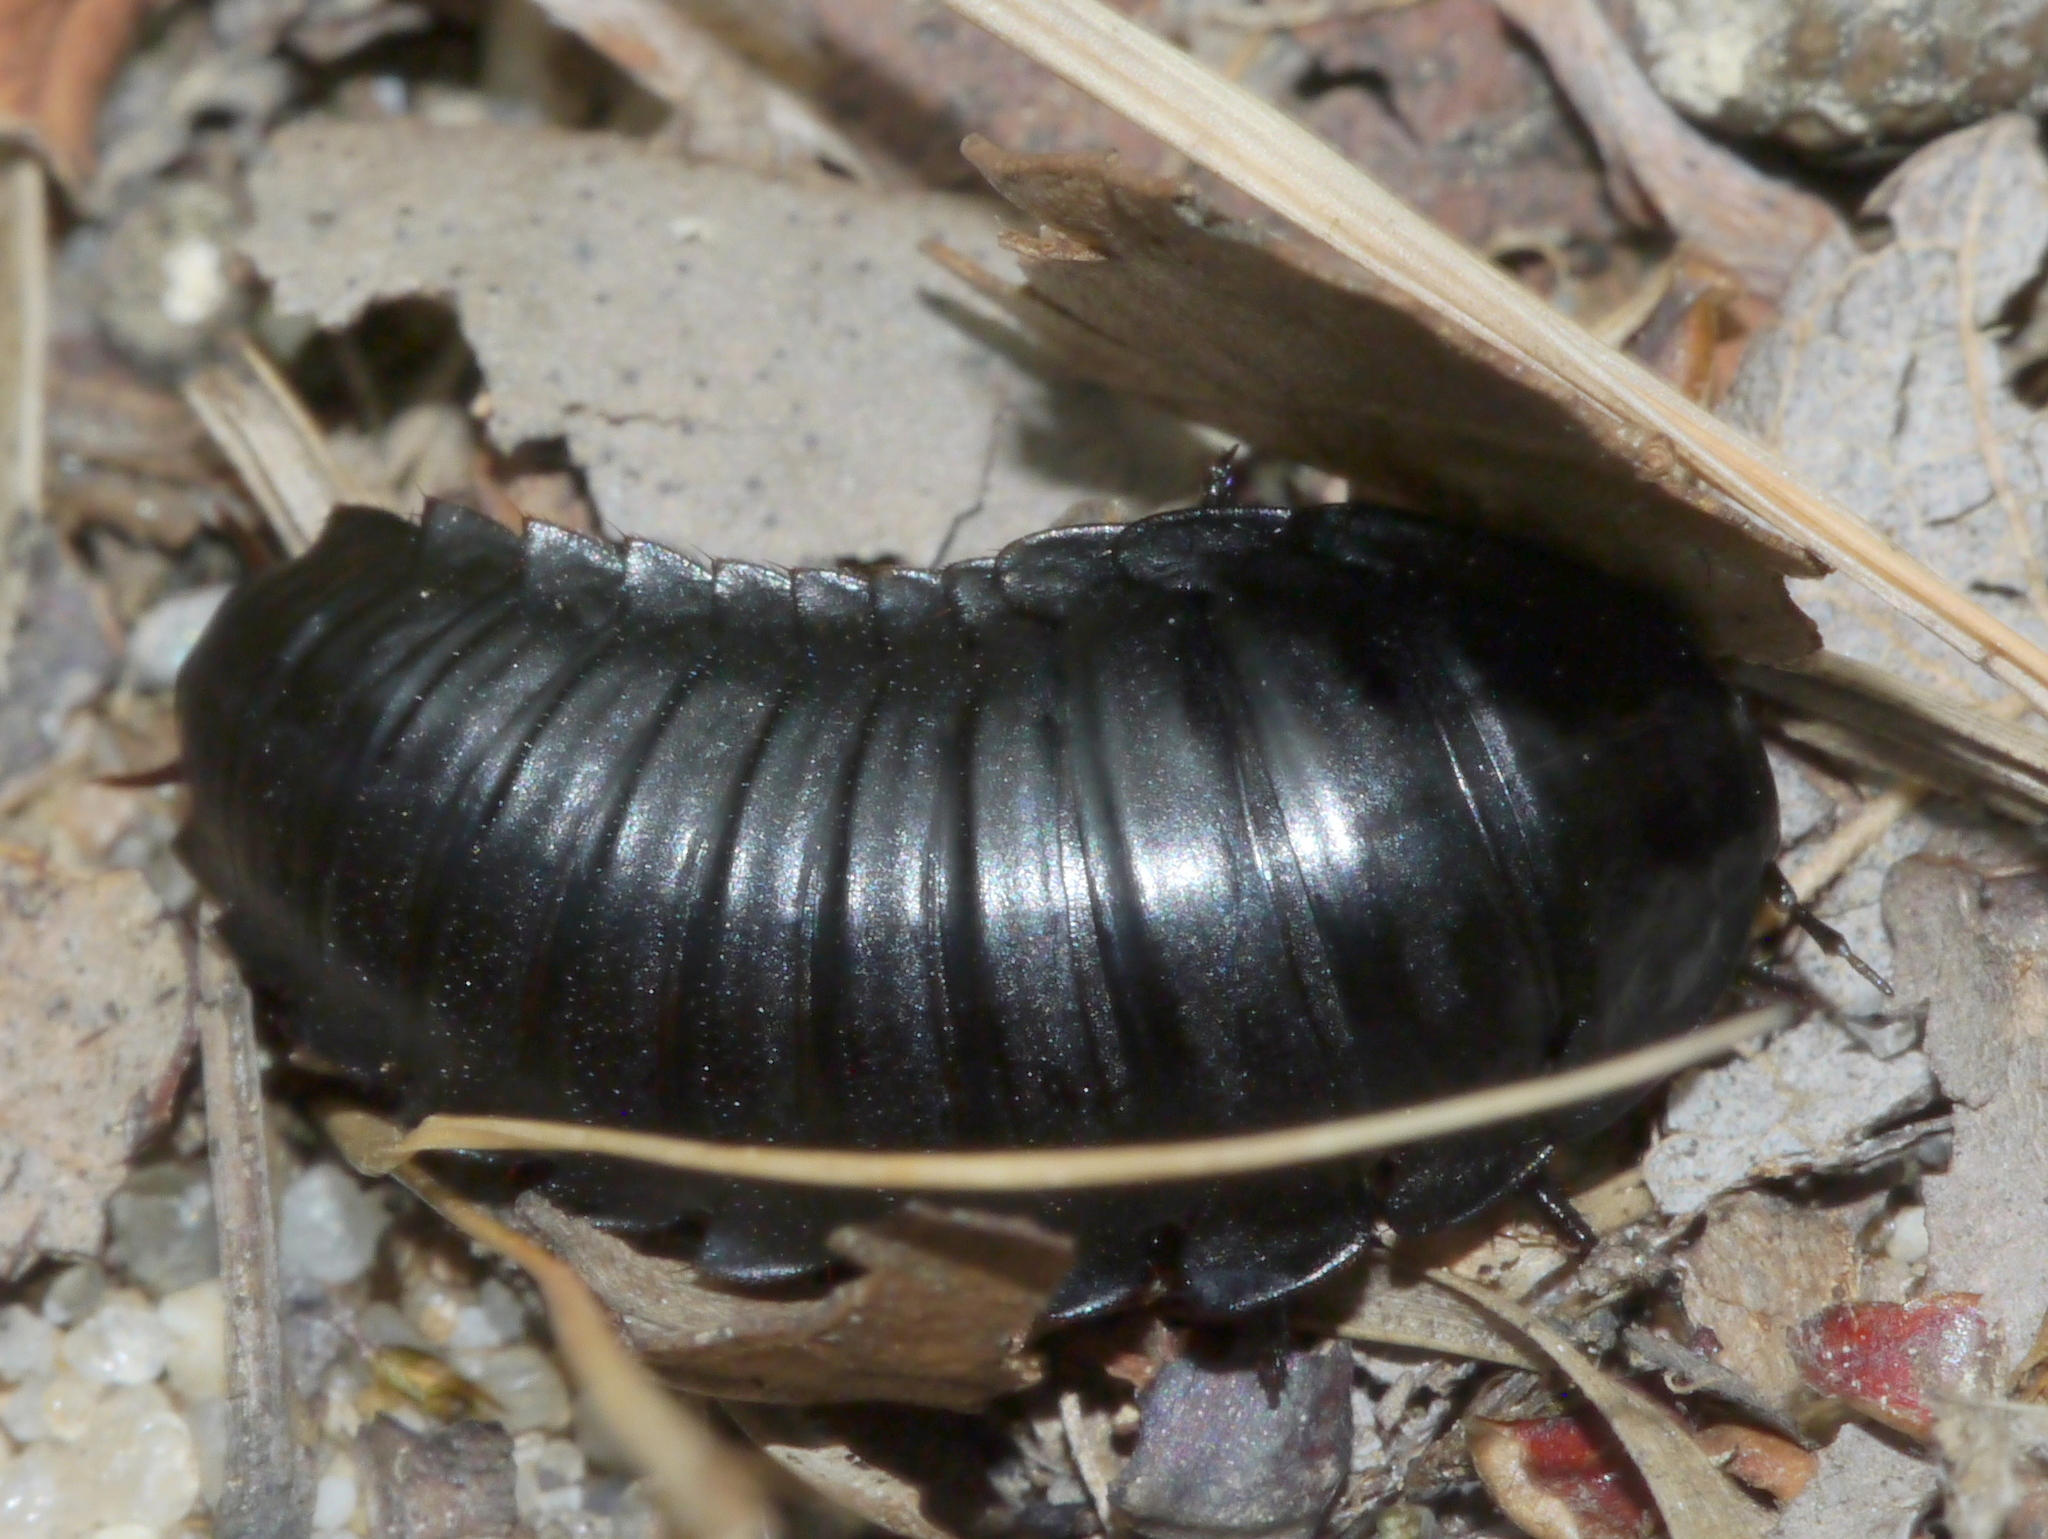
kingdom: Animalia
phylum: Arthropoda
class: Insecta
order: Coleoptera
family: Staphylinidae
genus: Necrophila
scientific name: Necrophila americana
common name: American carrion beetle
